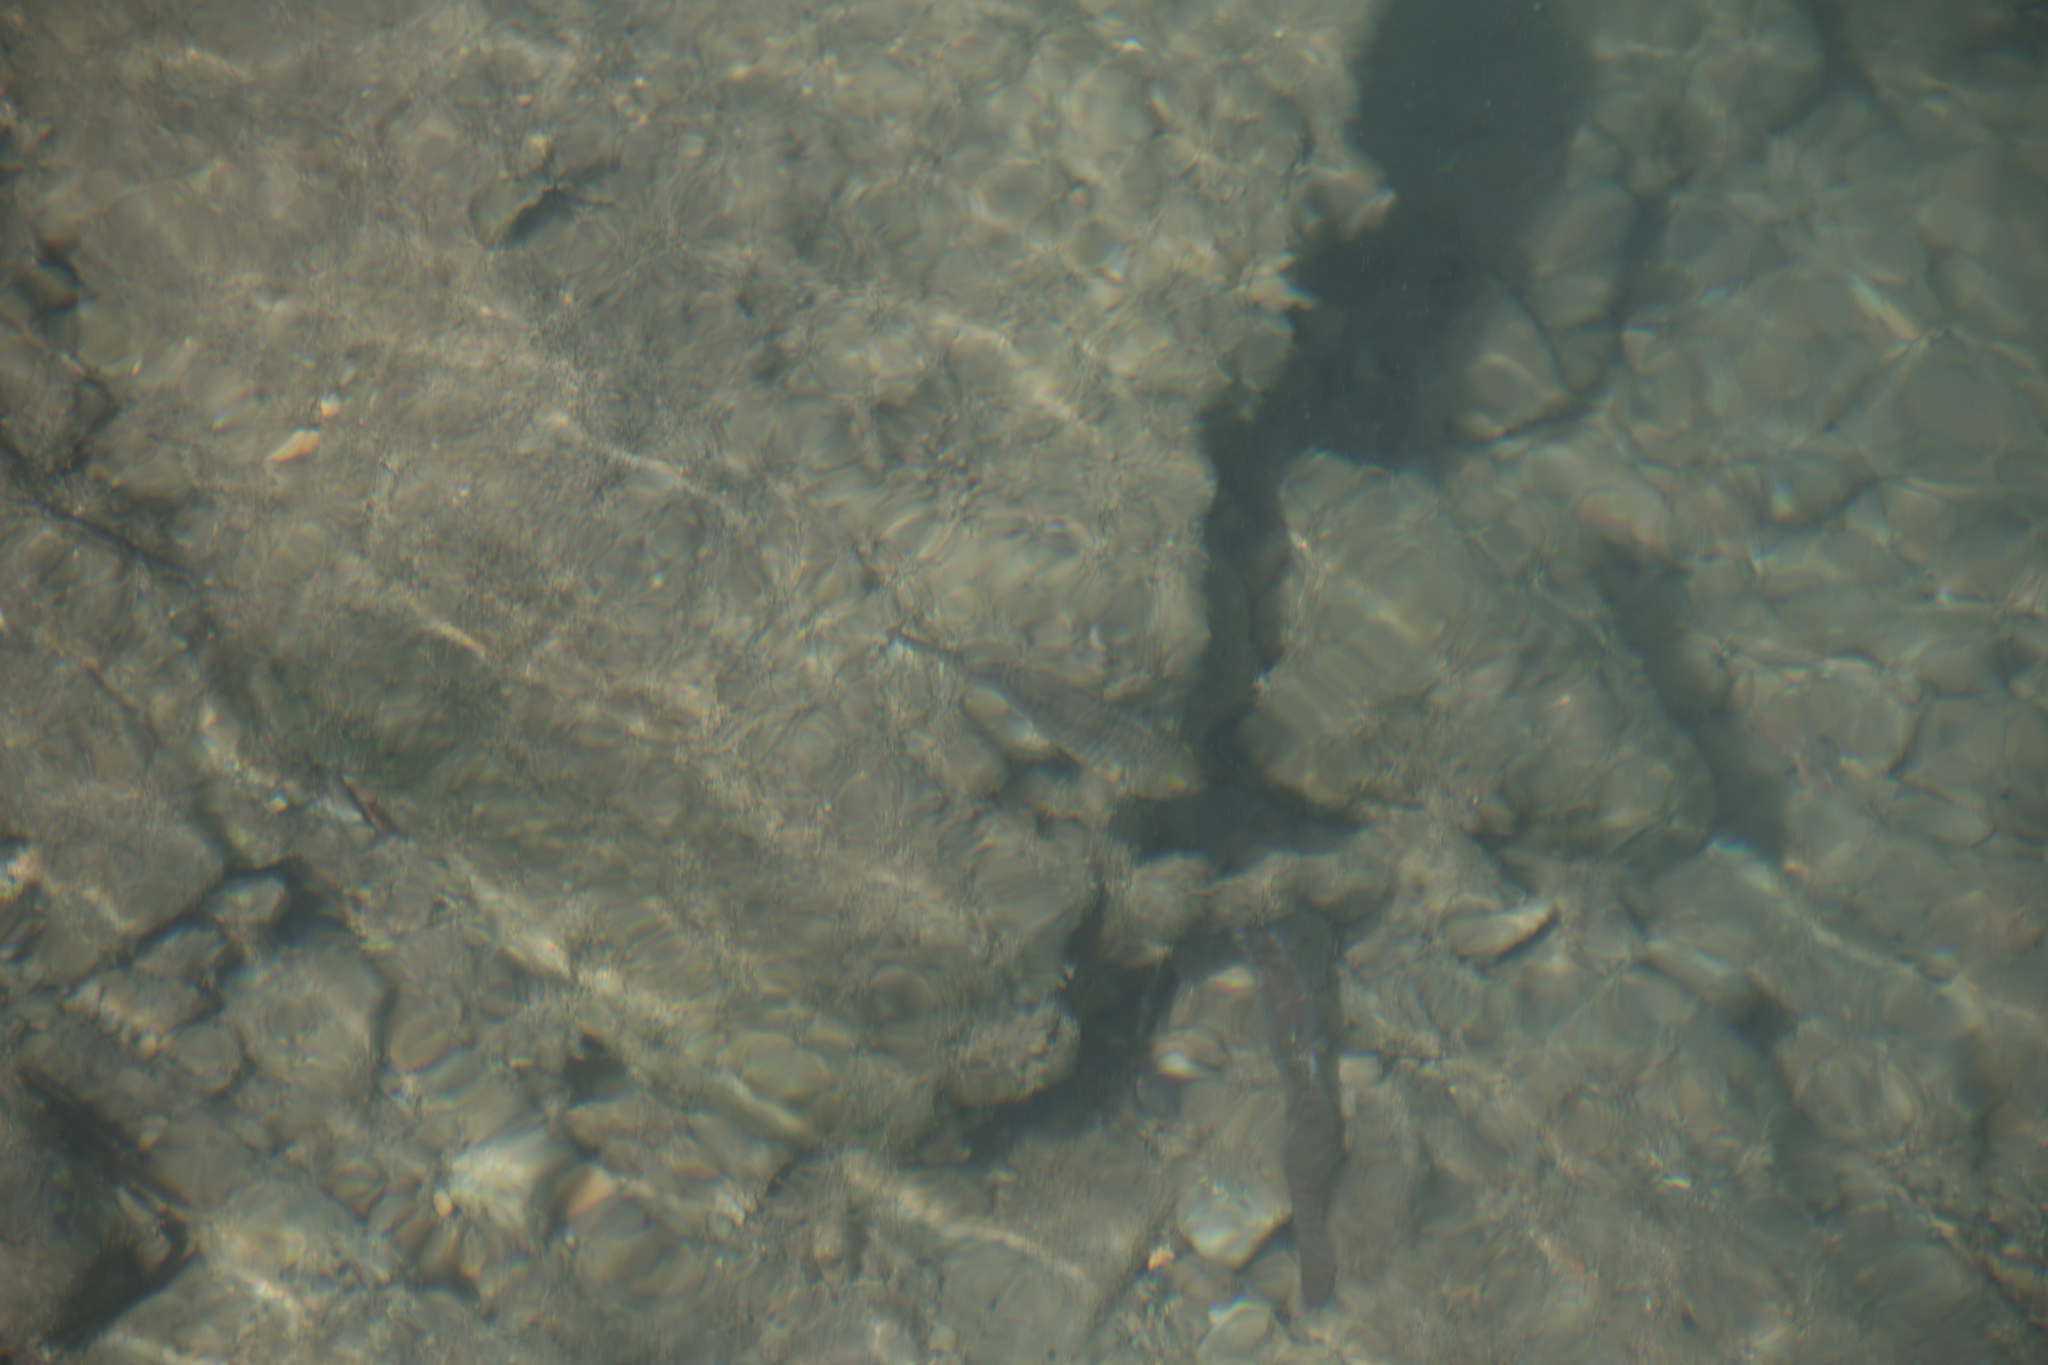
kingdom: Animalia
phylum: Chordata
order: Perciformes
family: Scaridae
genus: Sparisoma
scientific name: Sparisoma cretense
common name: Parrotfish
